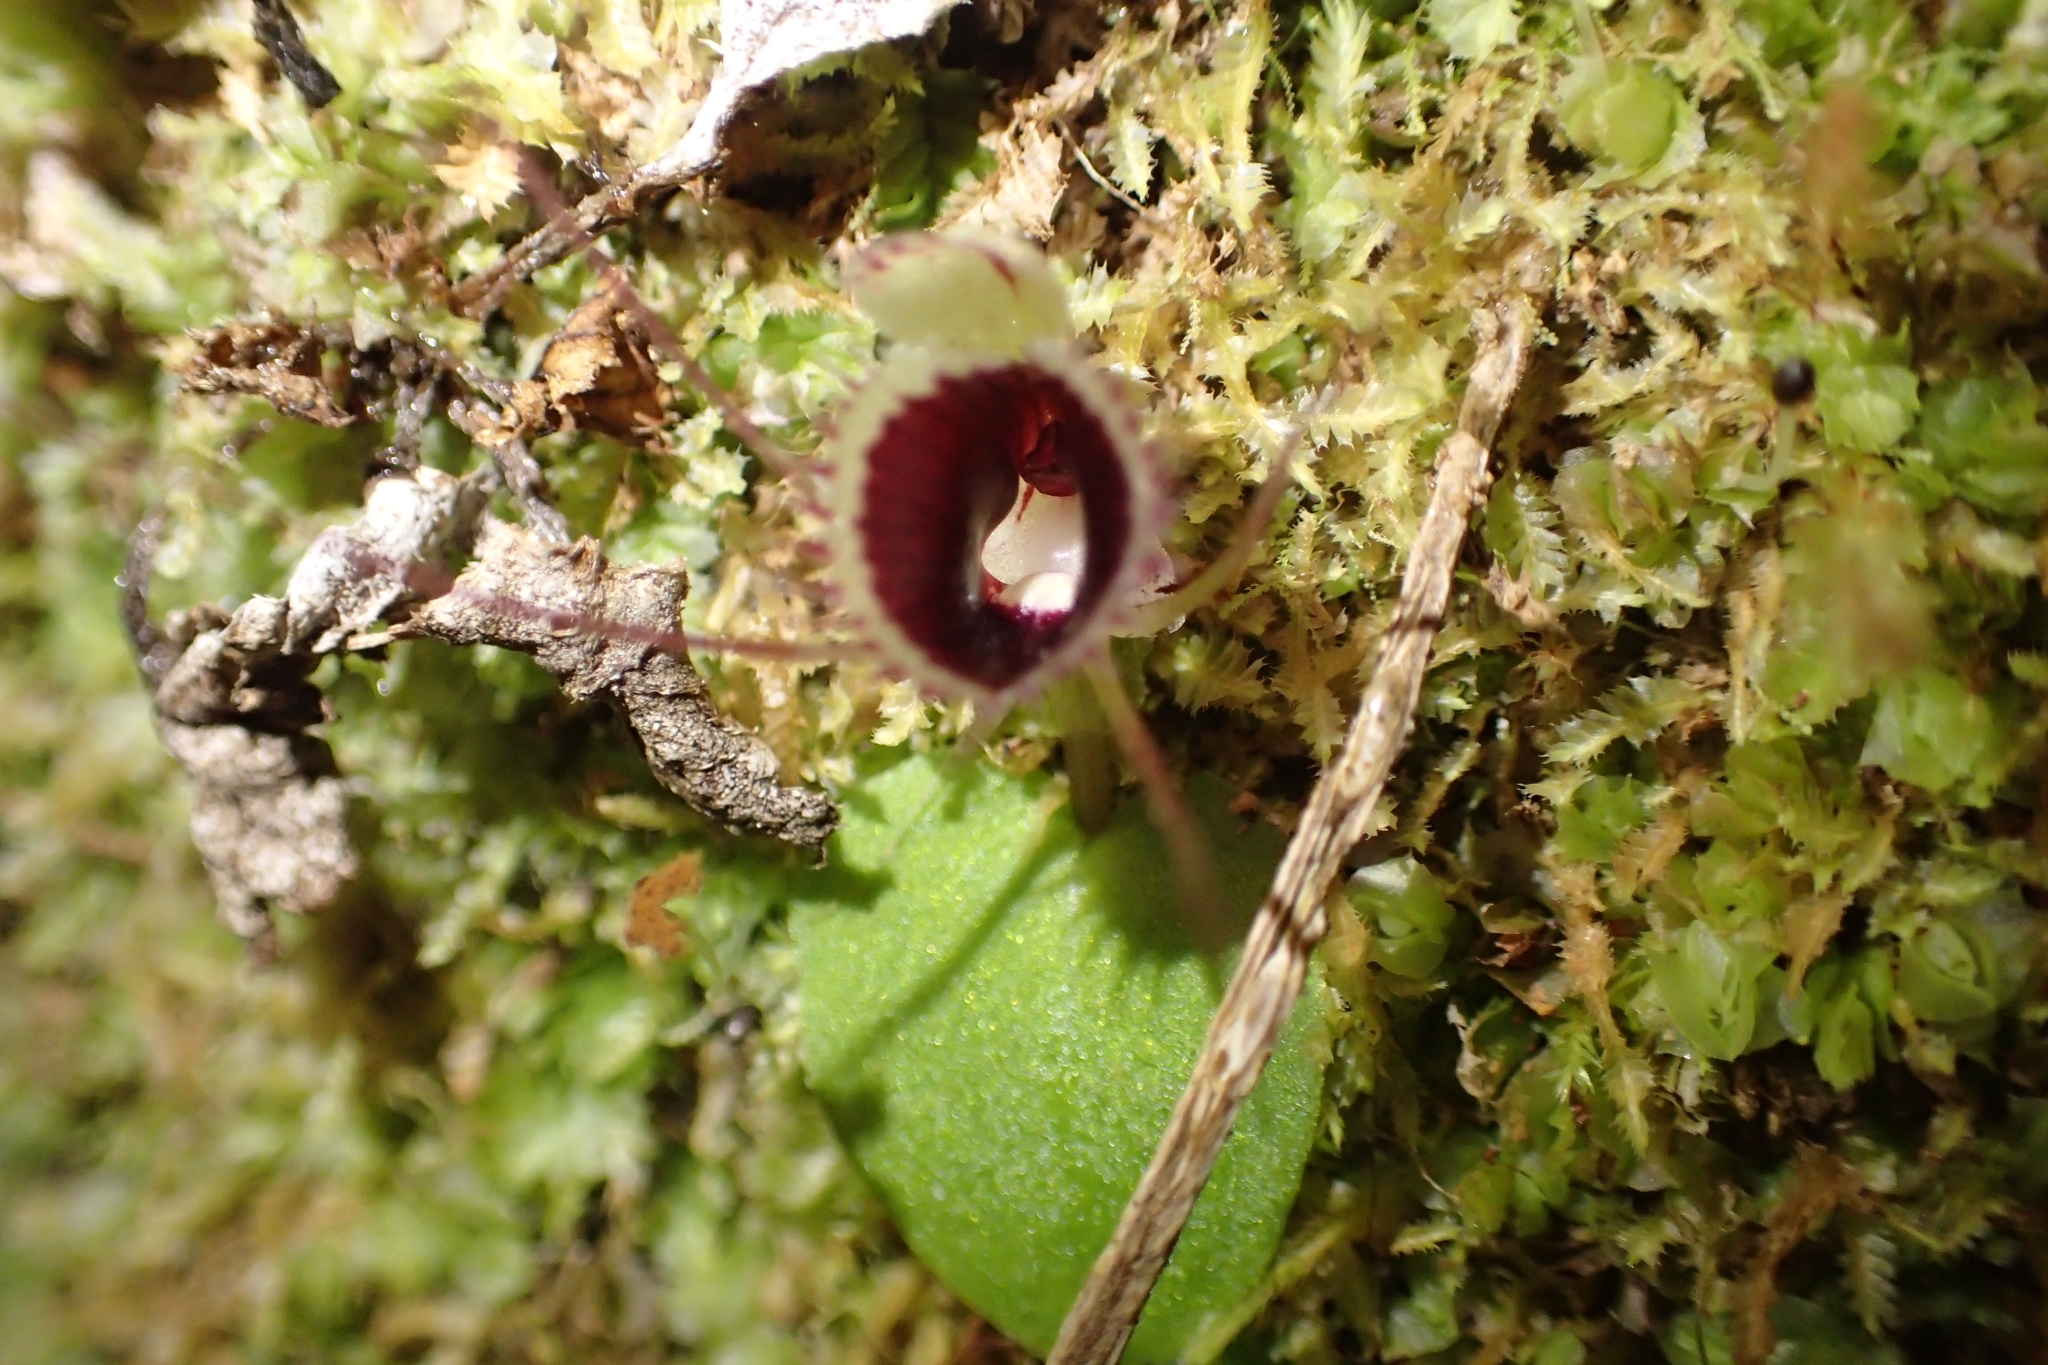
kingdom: Plantae
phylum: Tracheophyta
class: Liliopsida
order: Asparagales
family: Orchidaceae
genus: Corybas
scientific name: Corybas oblongus
